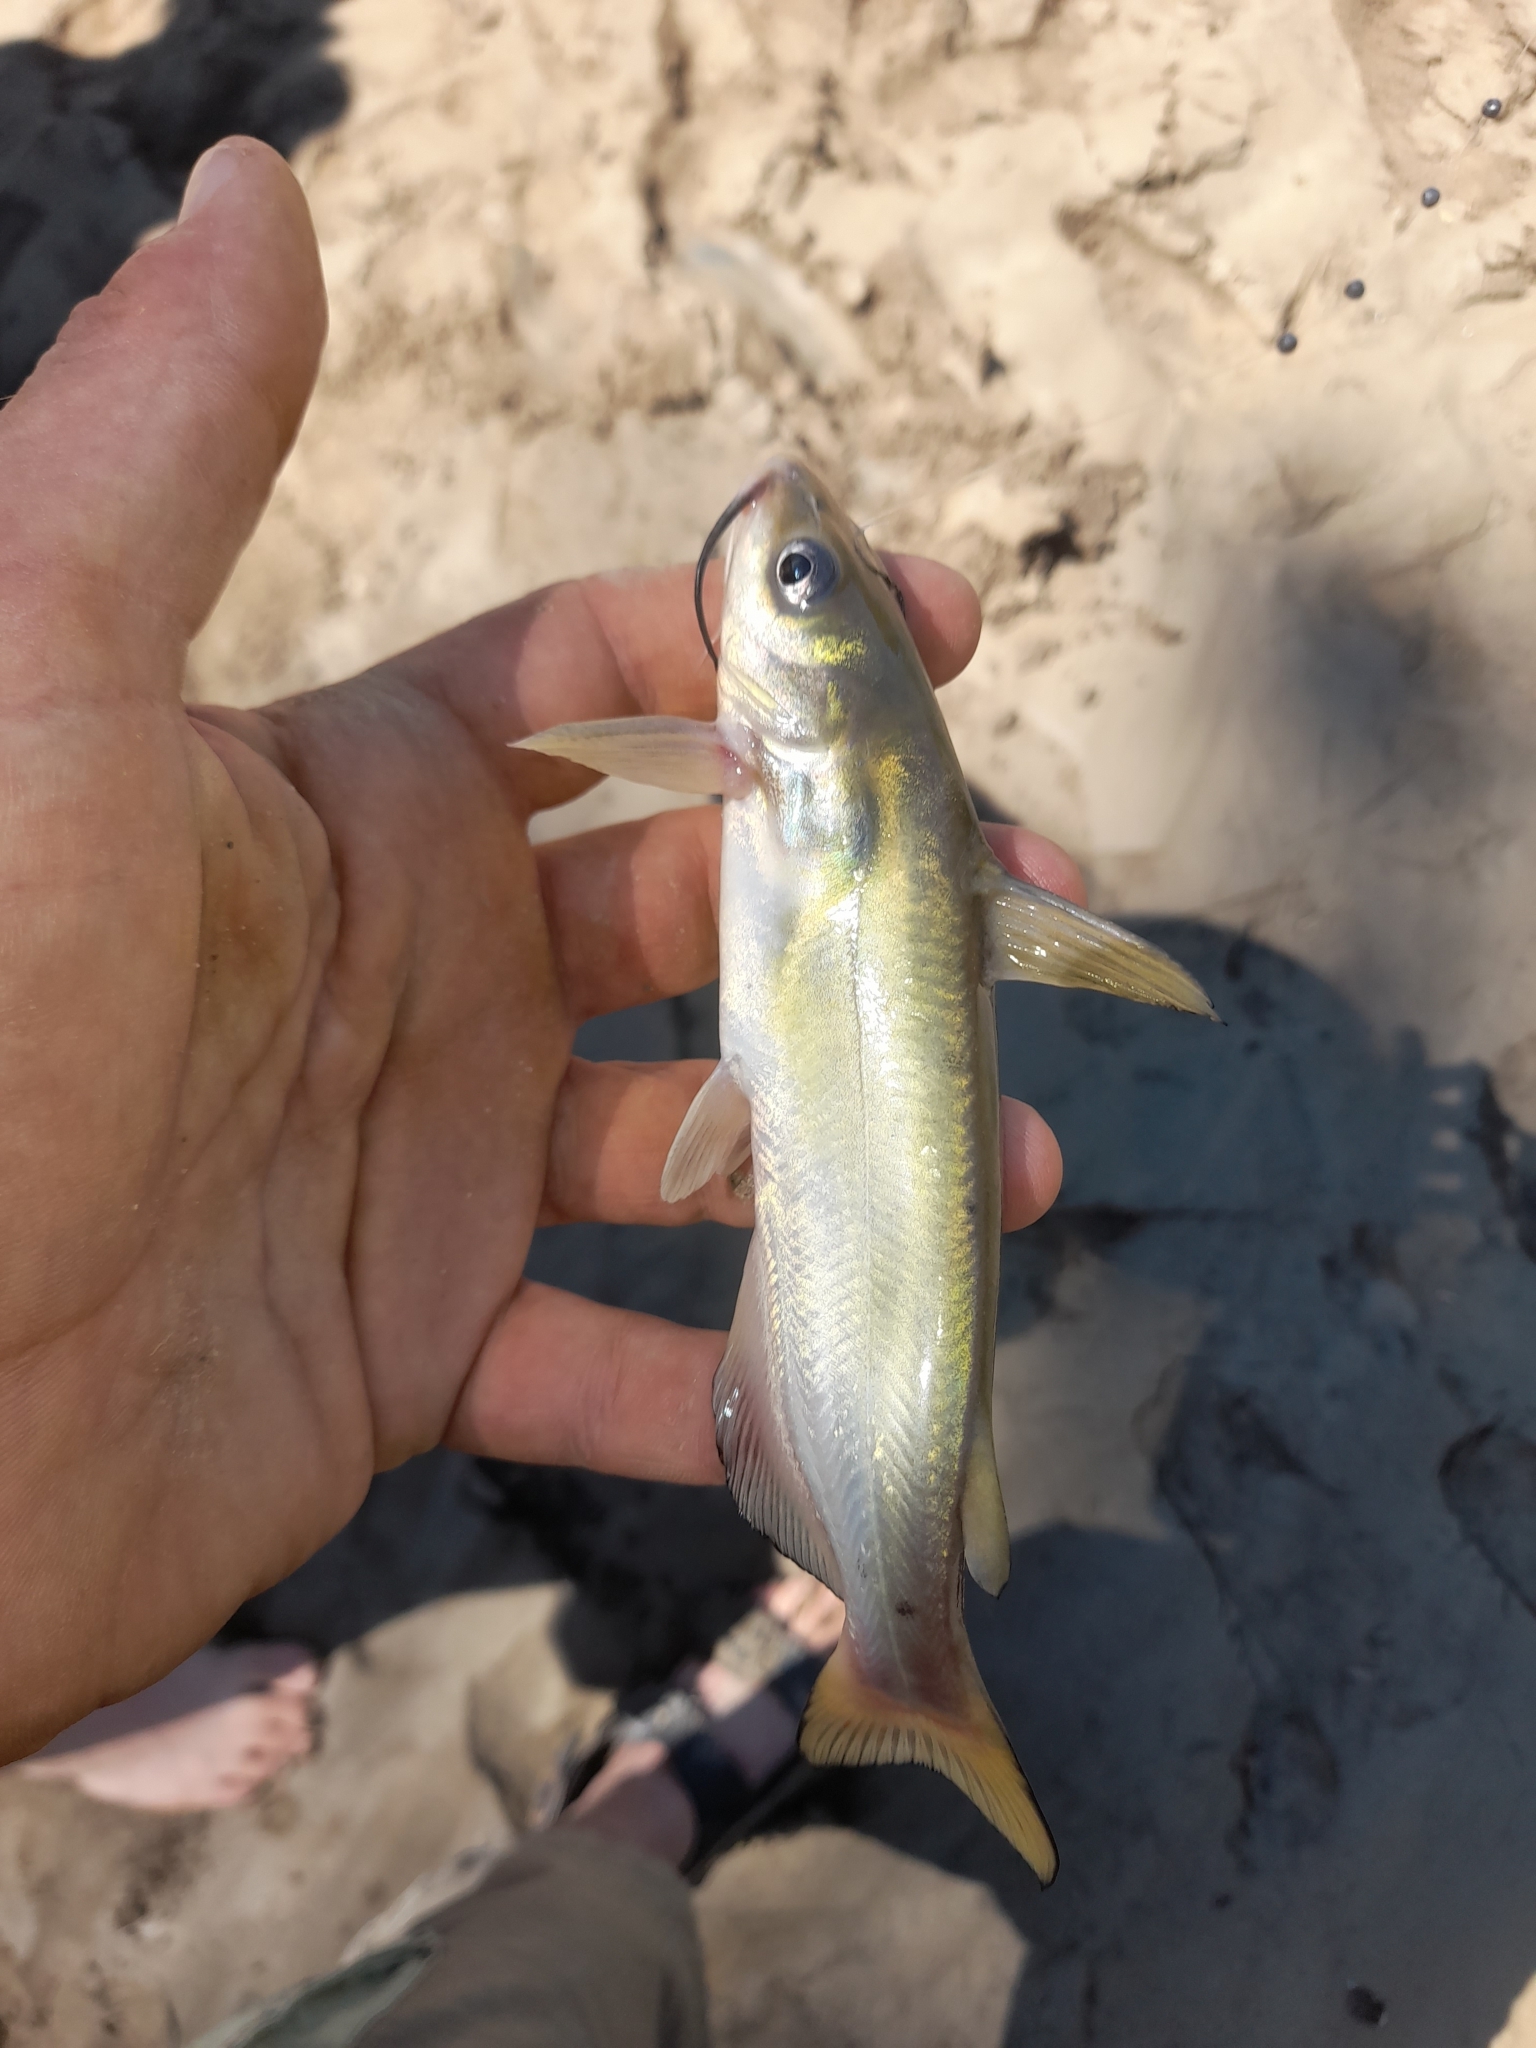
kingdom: Animalia
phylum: Chordata
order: Siluriformes
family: Ictaluridae
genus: Ictalurus
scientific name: Ictalurus punctatus
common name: Channel catfish
